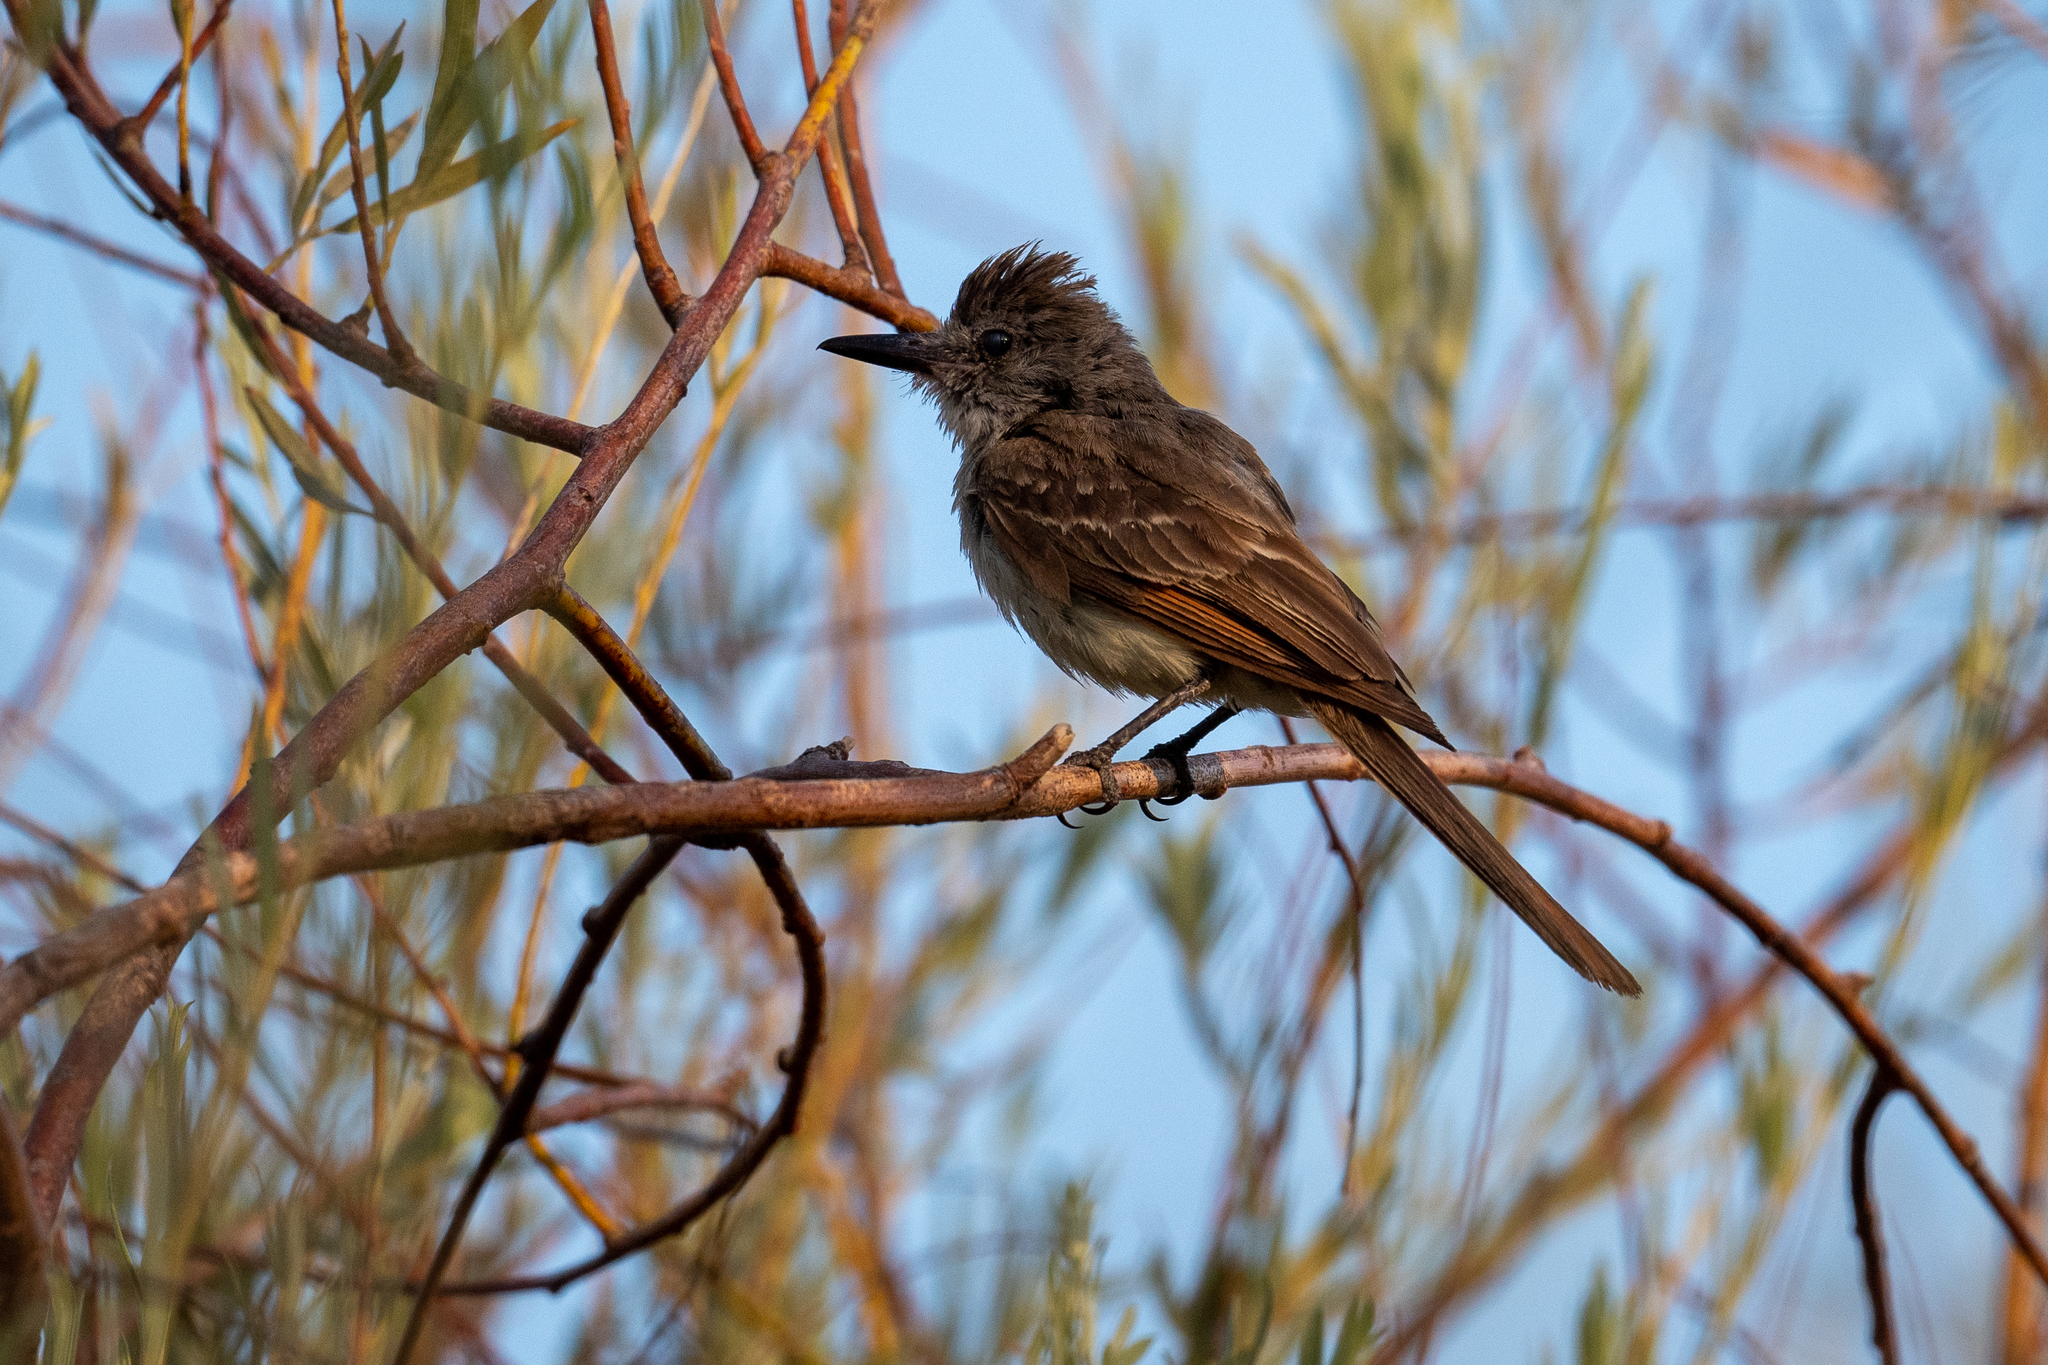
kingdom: Animalia
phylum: Chordata
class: Aves
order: Passeriformes
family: Tyrannidae
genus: Myiarchus
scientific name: Myiarchus cinerascens
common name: Ash-throated flycatcher
